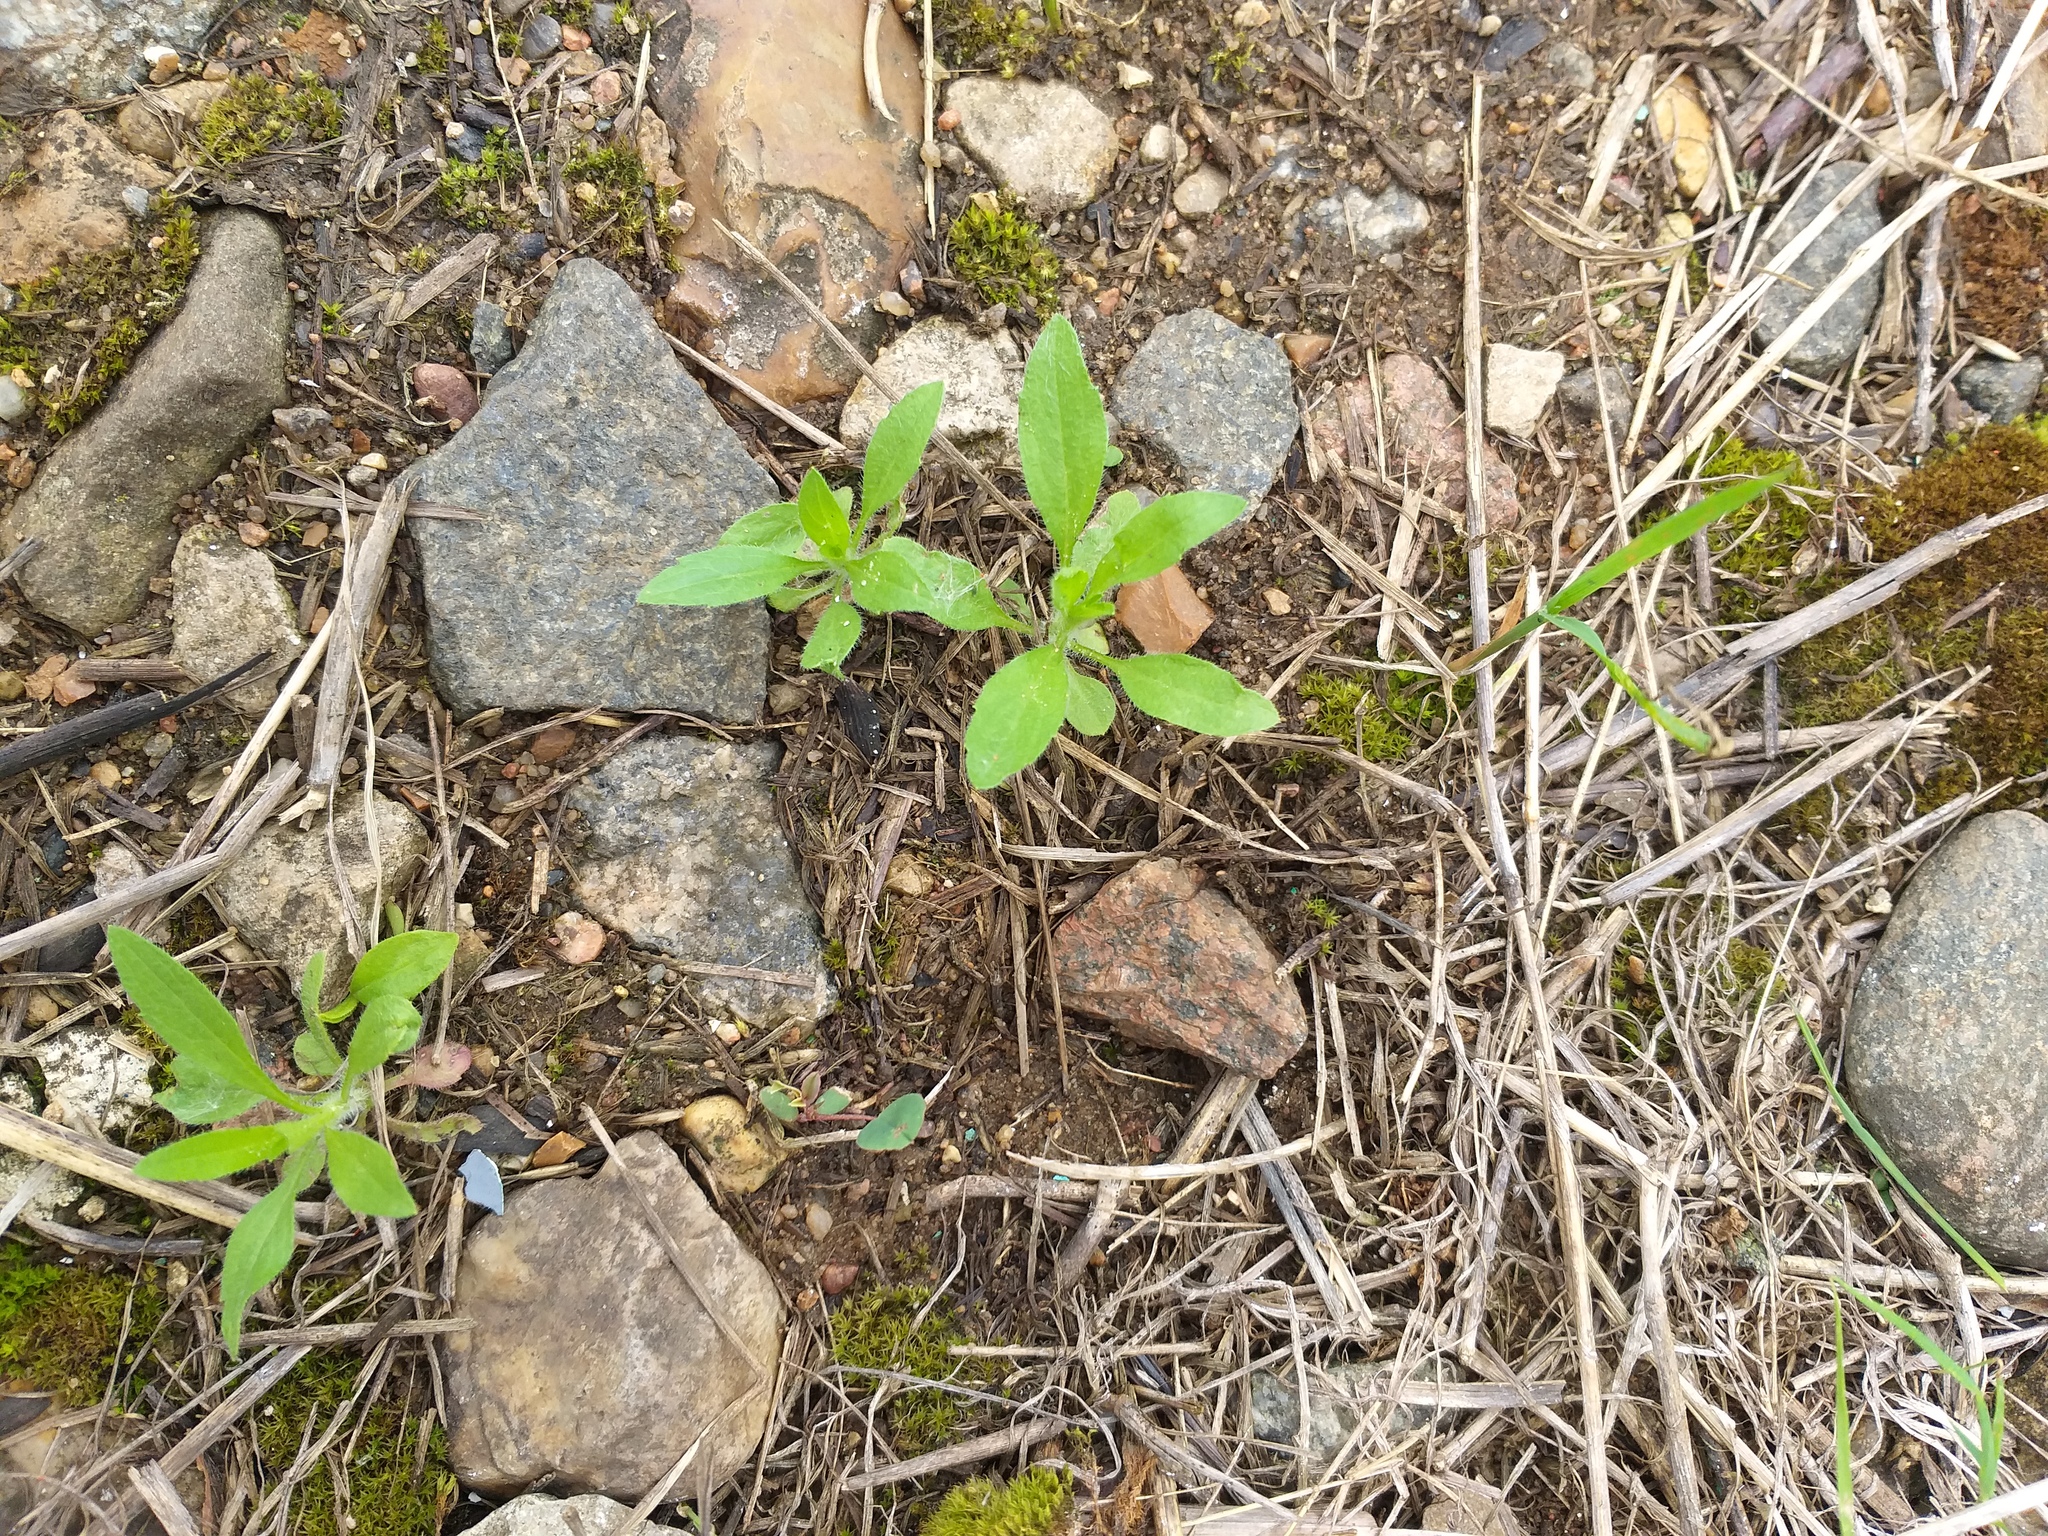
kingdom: Plantae
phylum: Tracheophyta
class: Magnoliopsida
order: Asterales
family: Asteraceae
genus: Erigeron
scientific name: Erigeron canadensis
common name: Canadian fleabane
